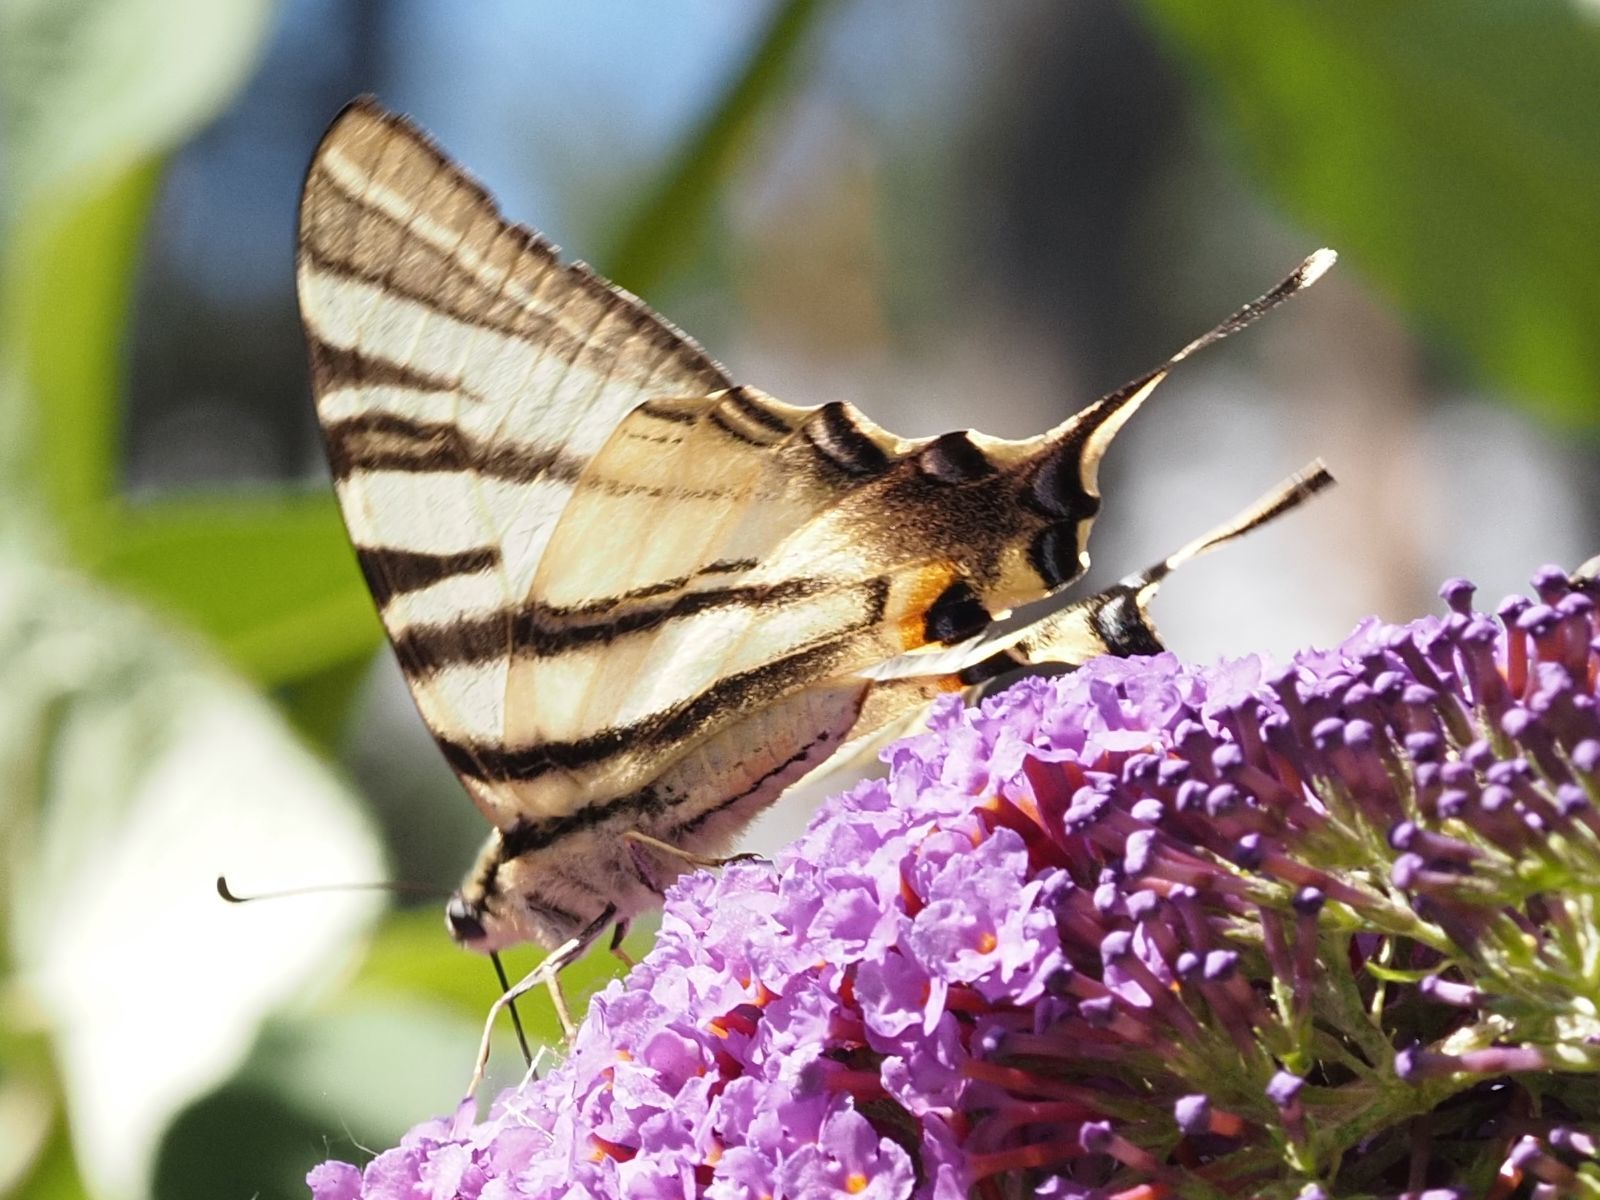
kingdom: Animalia
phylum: Arthropoda
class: Insecta
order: Lepidoptera
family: Papilionidae
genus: Iphiclides
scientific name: Iphiclides podalirius
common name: Scarce swallowtail
